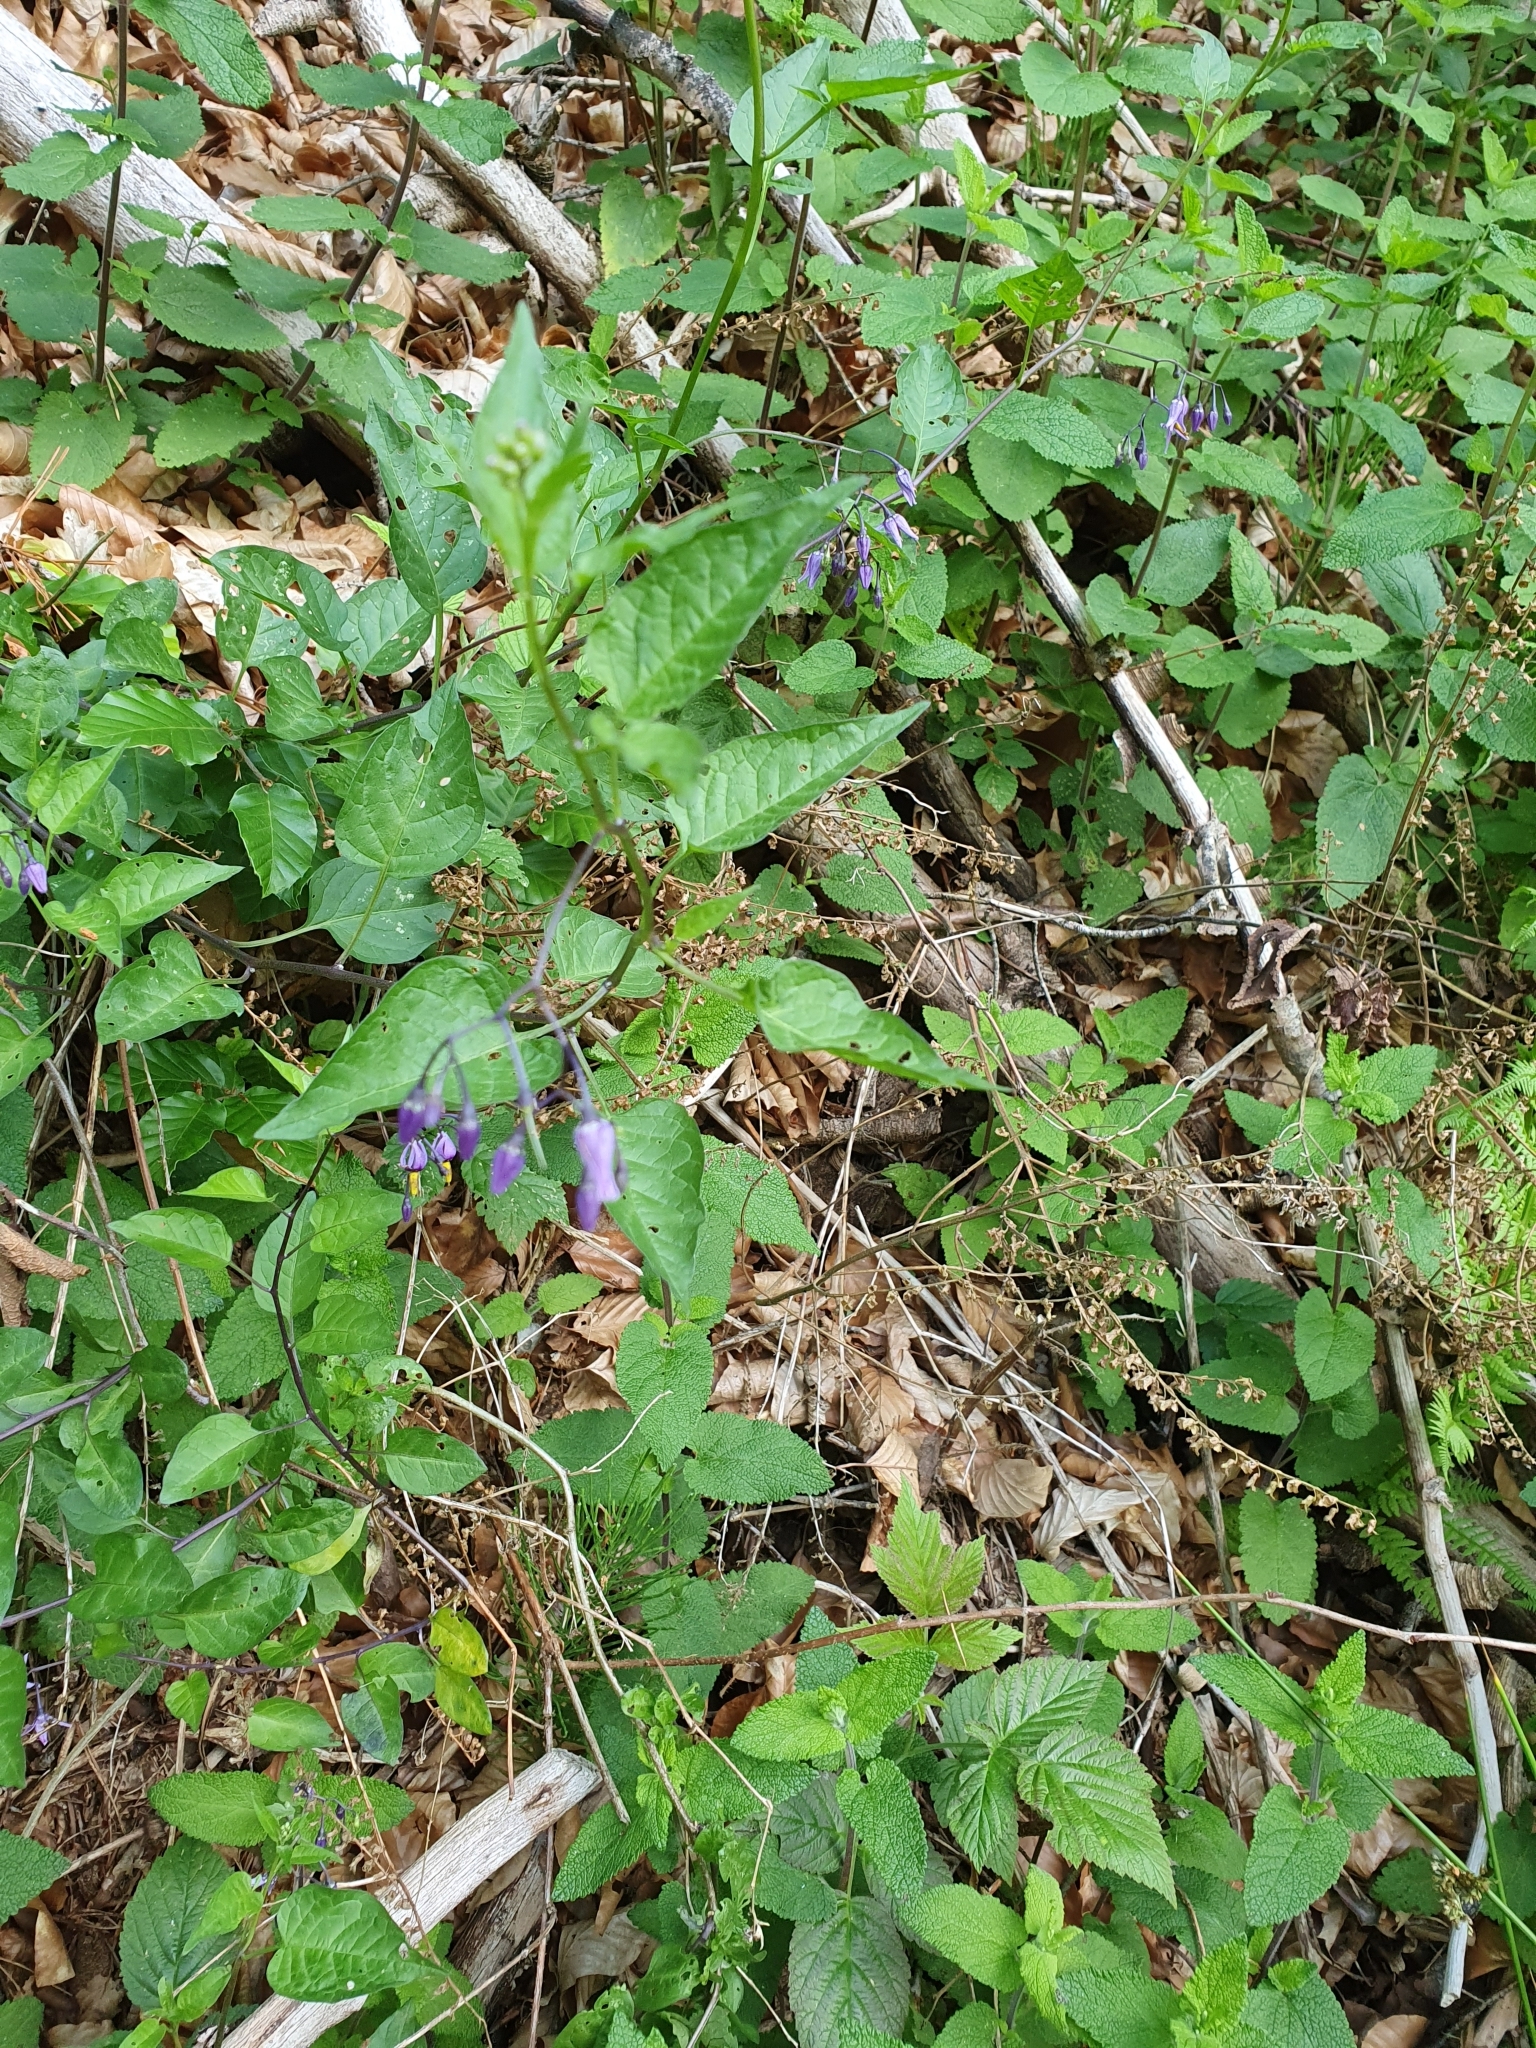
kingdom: Plantae
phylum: Tracheophyta
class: Magnoliopsida
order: Solanales
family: Solanaceae
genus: Solanum
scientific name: Solanum dulcamara
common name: Climbing nightshade
